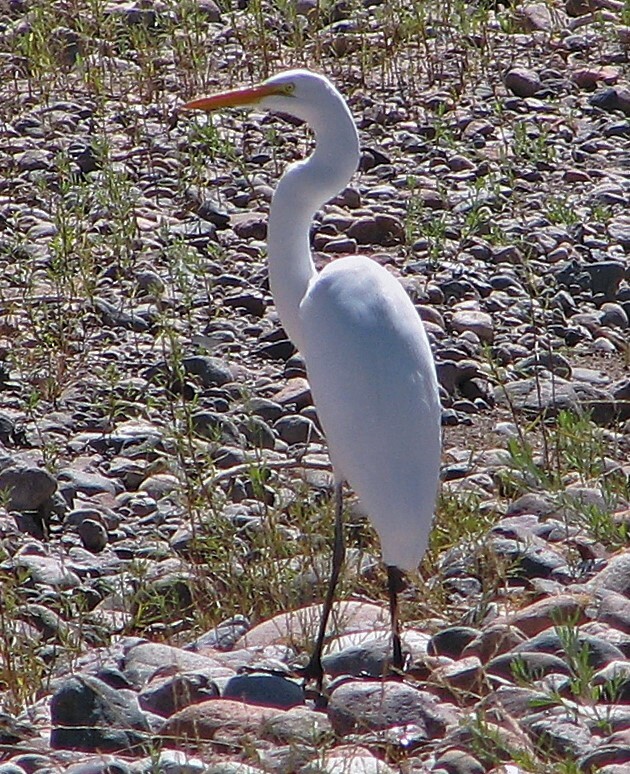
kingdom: Animalia
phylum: Chordata
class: Aves
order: Pelecaniformes
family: Ardeidae
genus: Ardea
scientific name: Ardea alba
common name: Great egret
